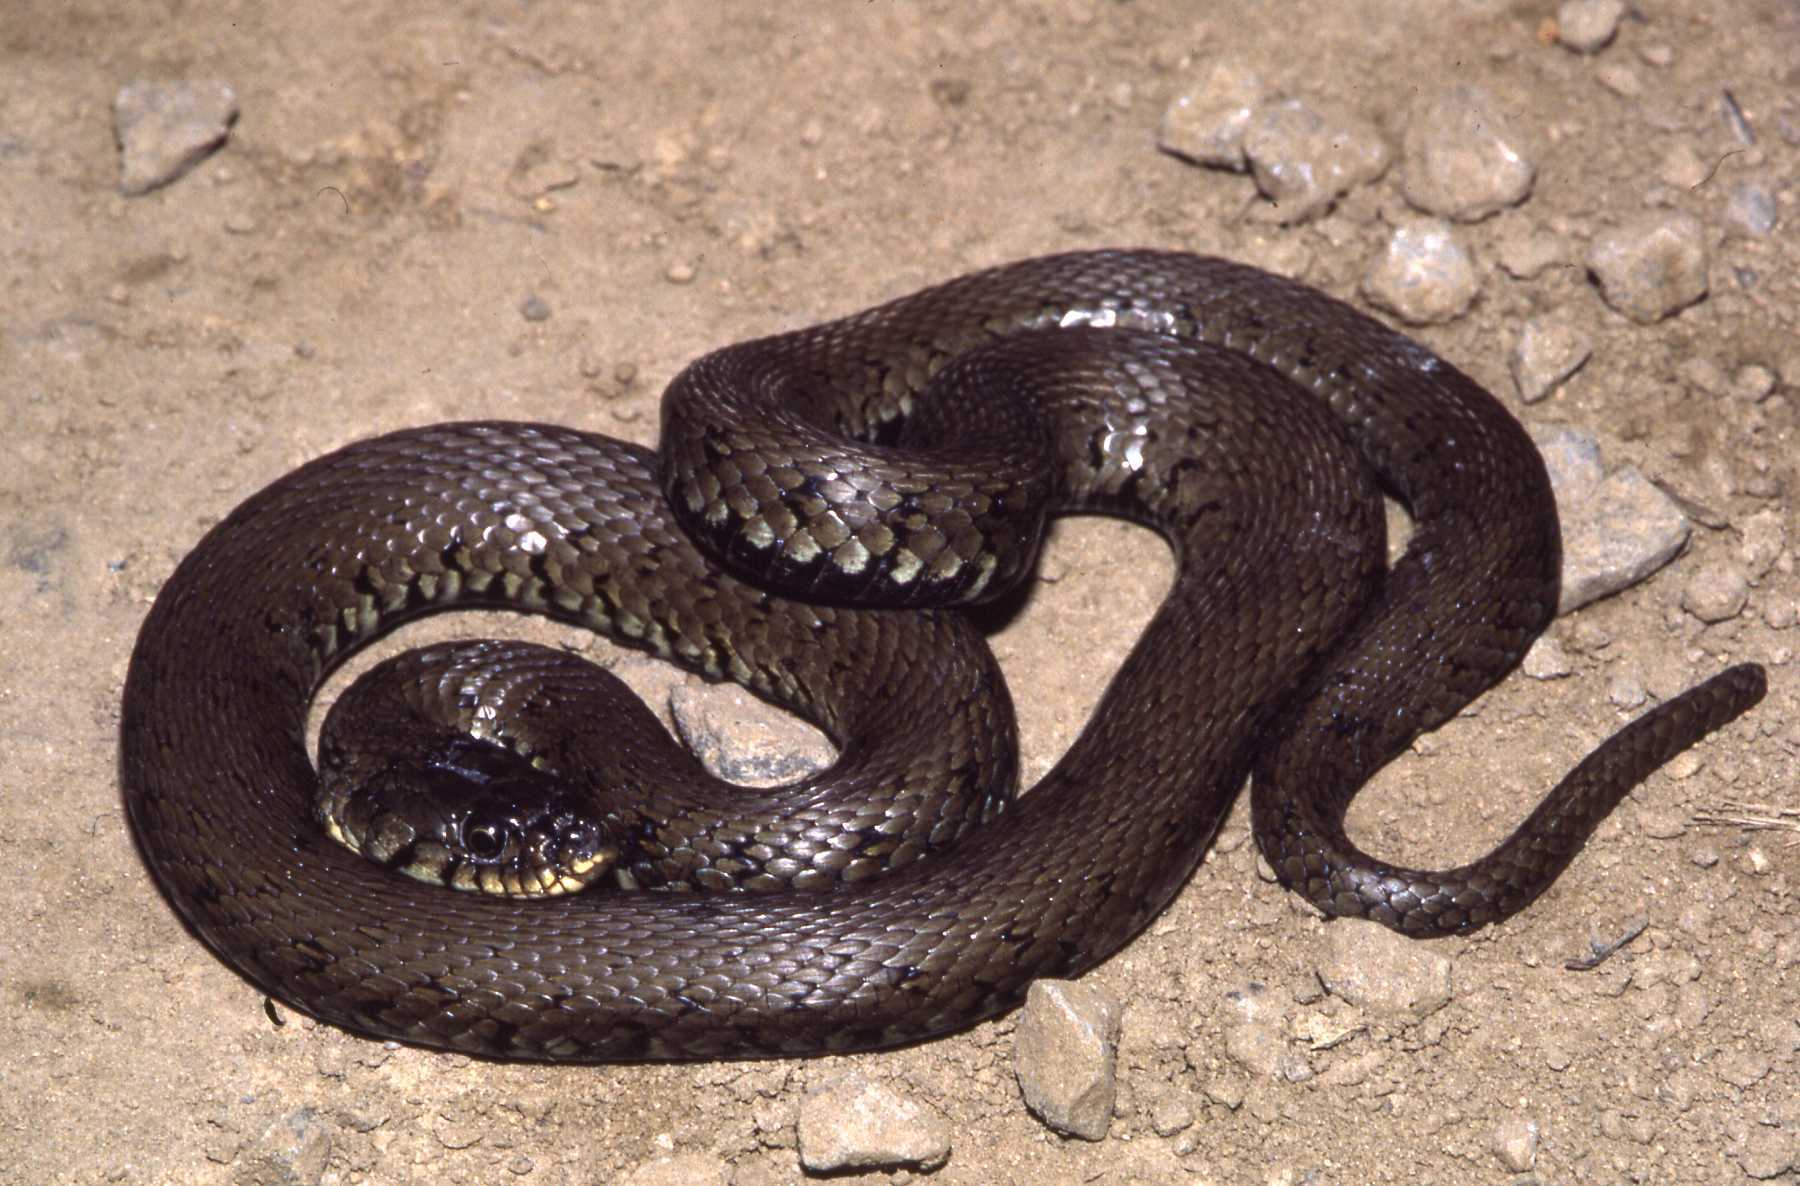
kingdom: Animalia
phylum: Chordata
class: Squamata
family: Colubridae
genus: Natrix
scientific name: Natrix helvetica
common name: Banded grass snake
